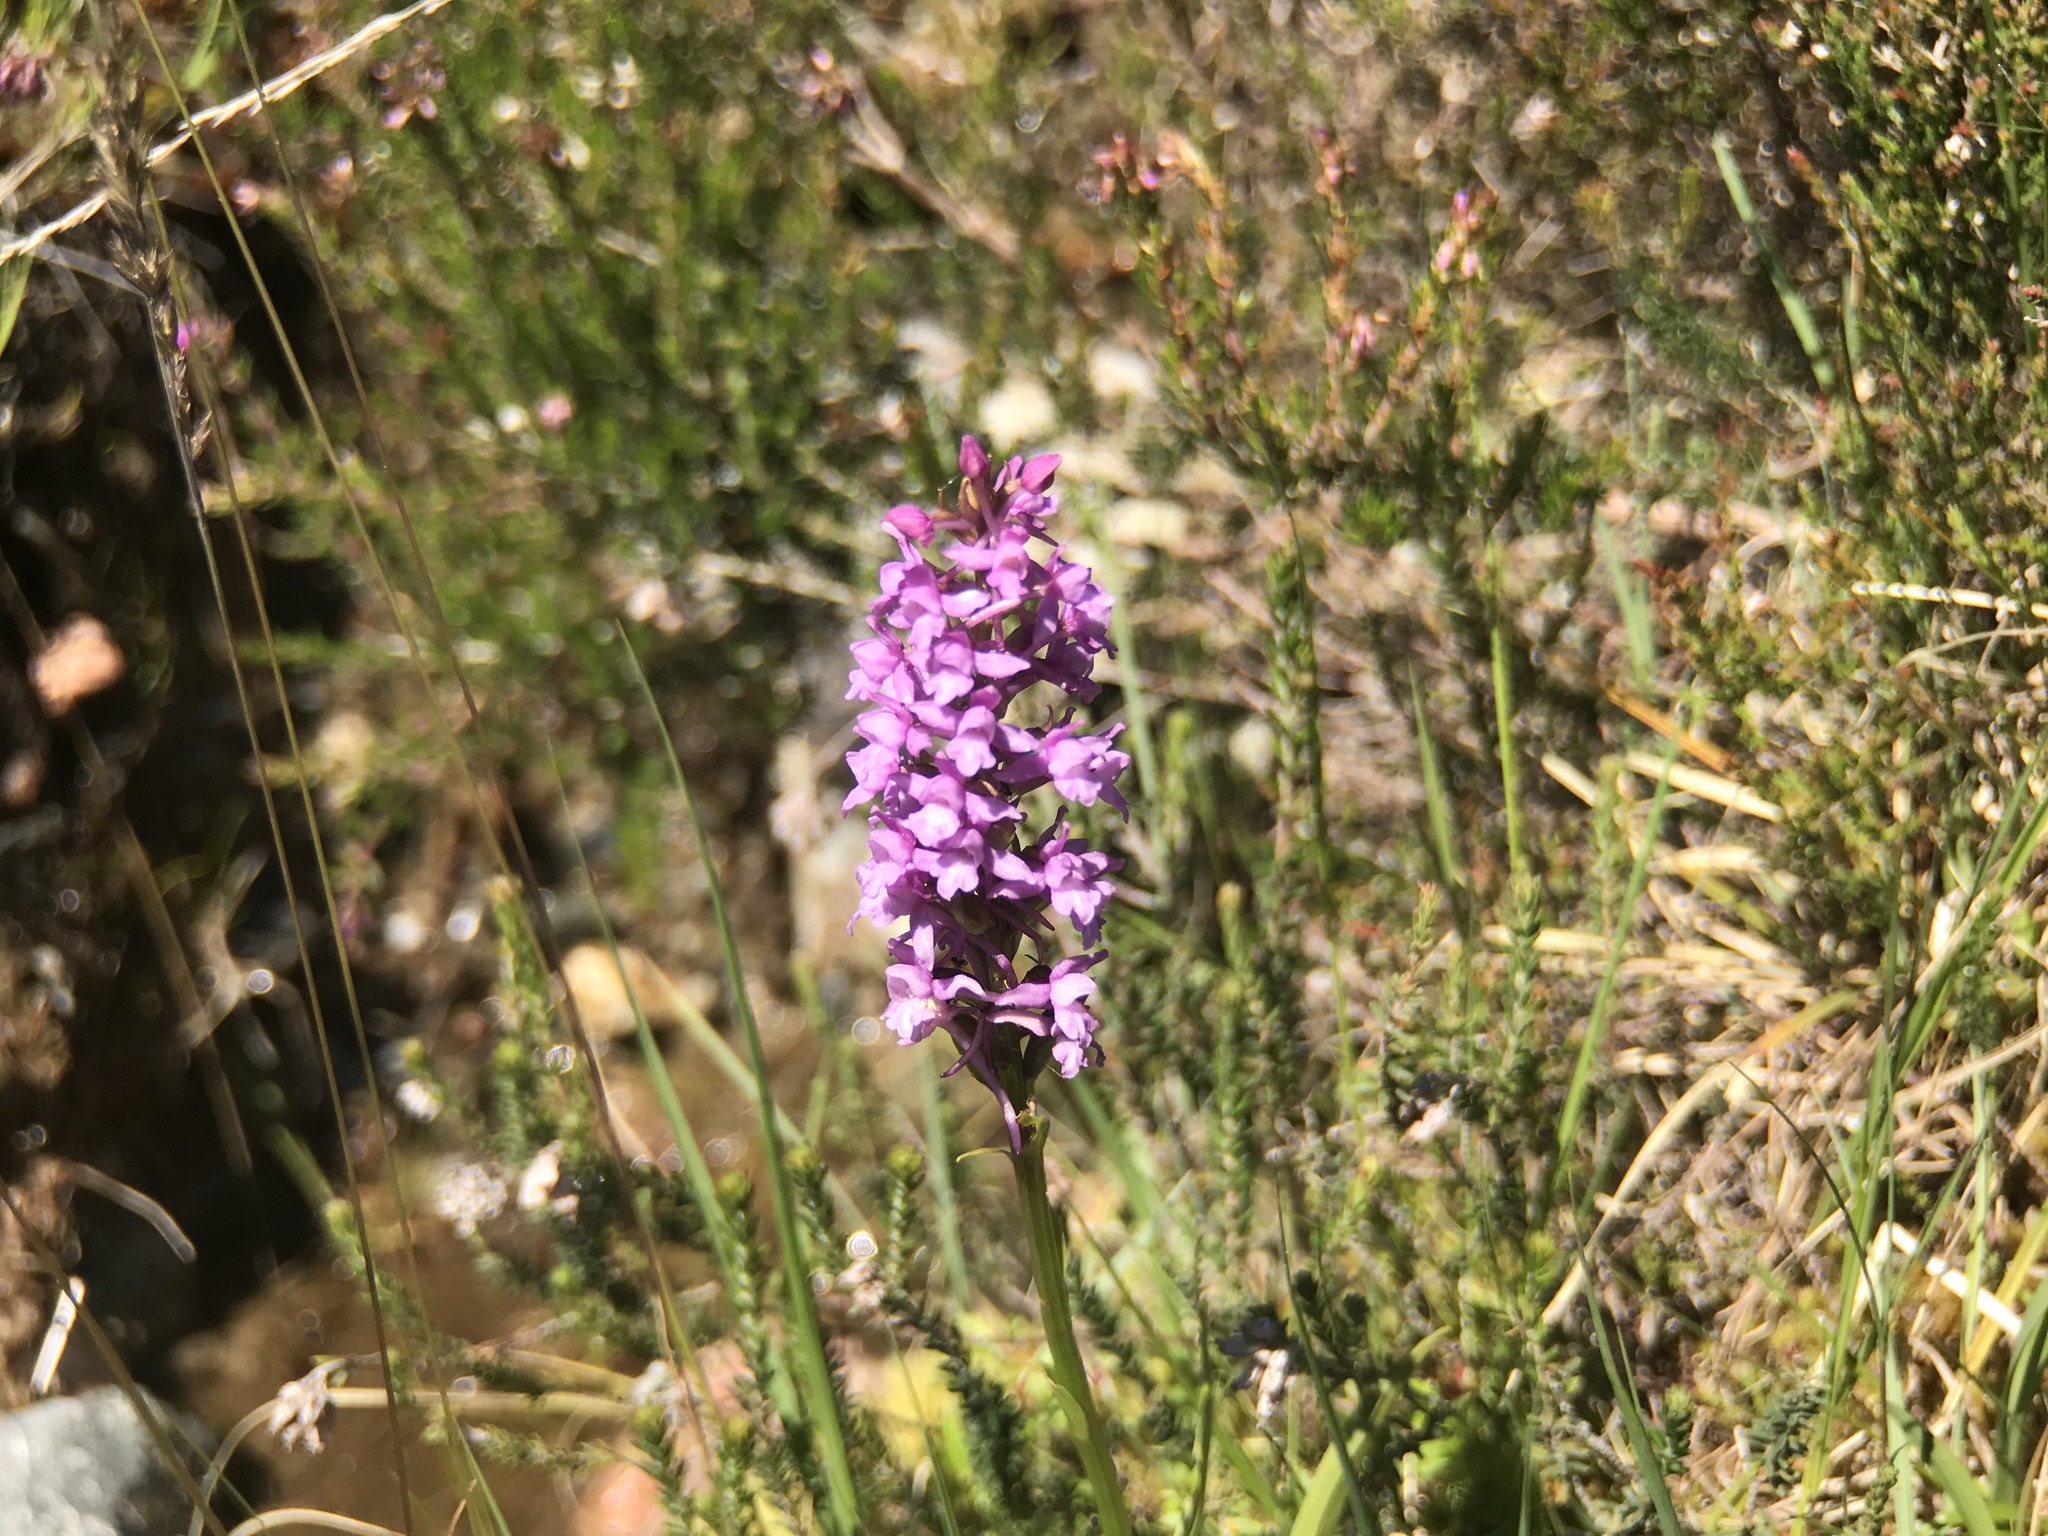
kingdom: Plantae
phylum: Tracheophyta
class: Liliopsida
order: Asparagales
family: Orchidaceae
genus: Gymnadenia
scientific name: Gymnadenia conopsea
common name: Fragrant orchid
